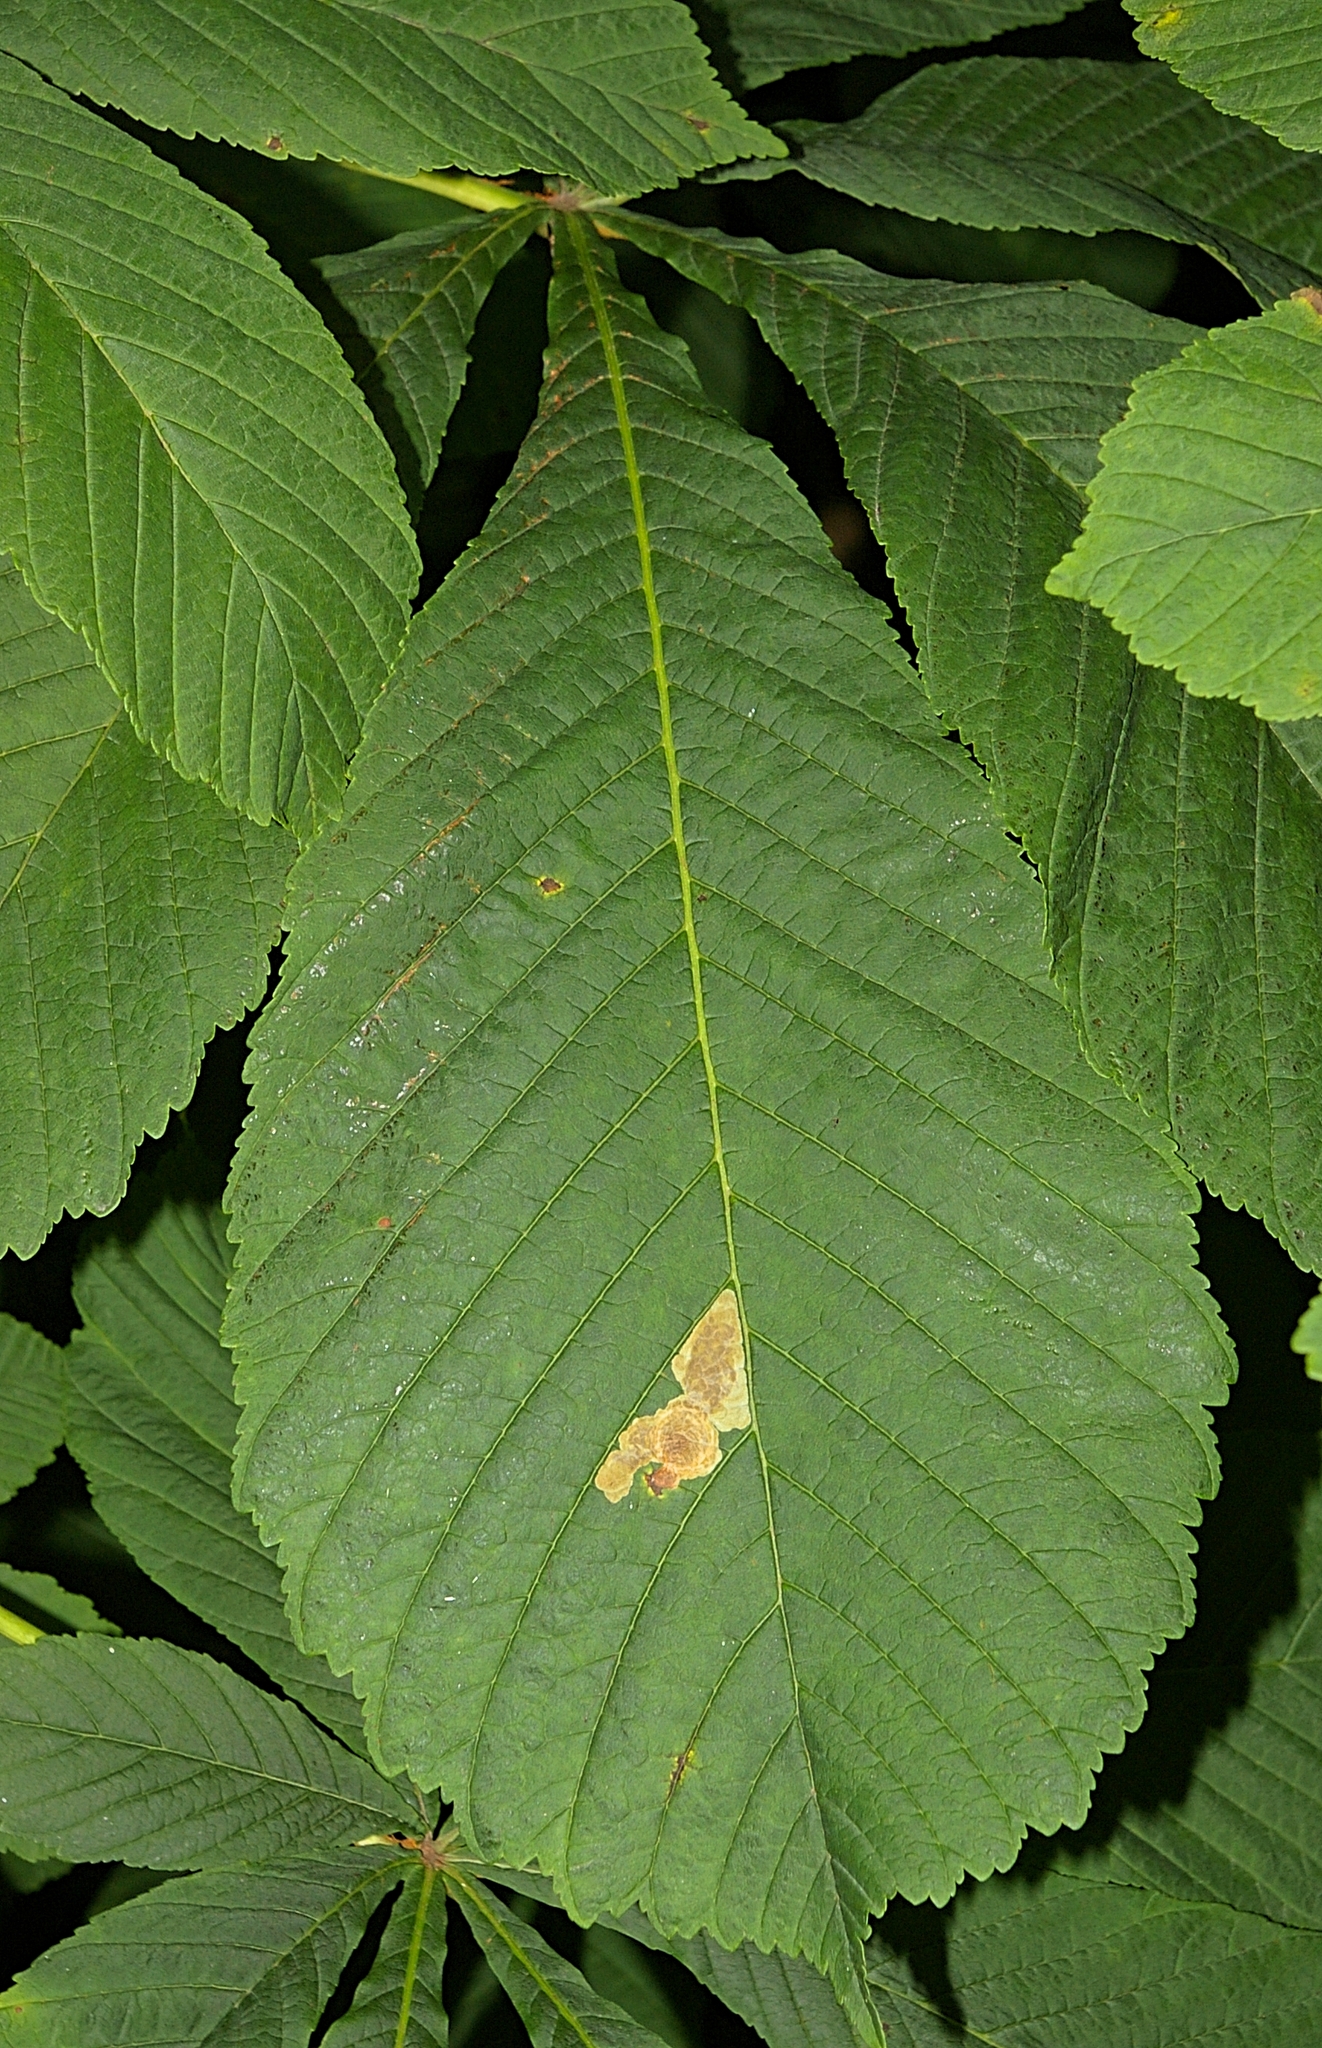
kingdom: Animalia
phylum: Arthropoda
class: Insecta
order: Lepidoptera
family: Gracillariidae
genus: Cameraria
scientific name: Cameraria ohridella
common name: Horse-chestnut leaf-miner
